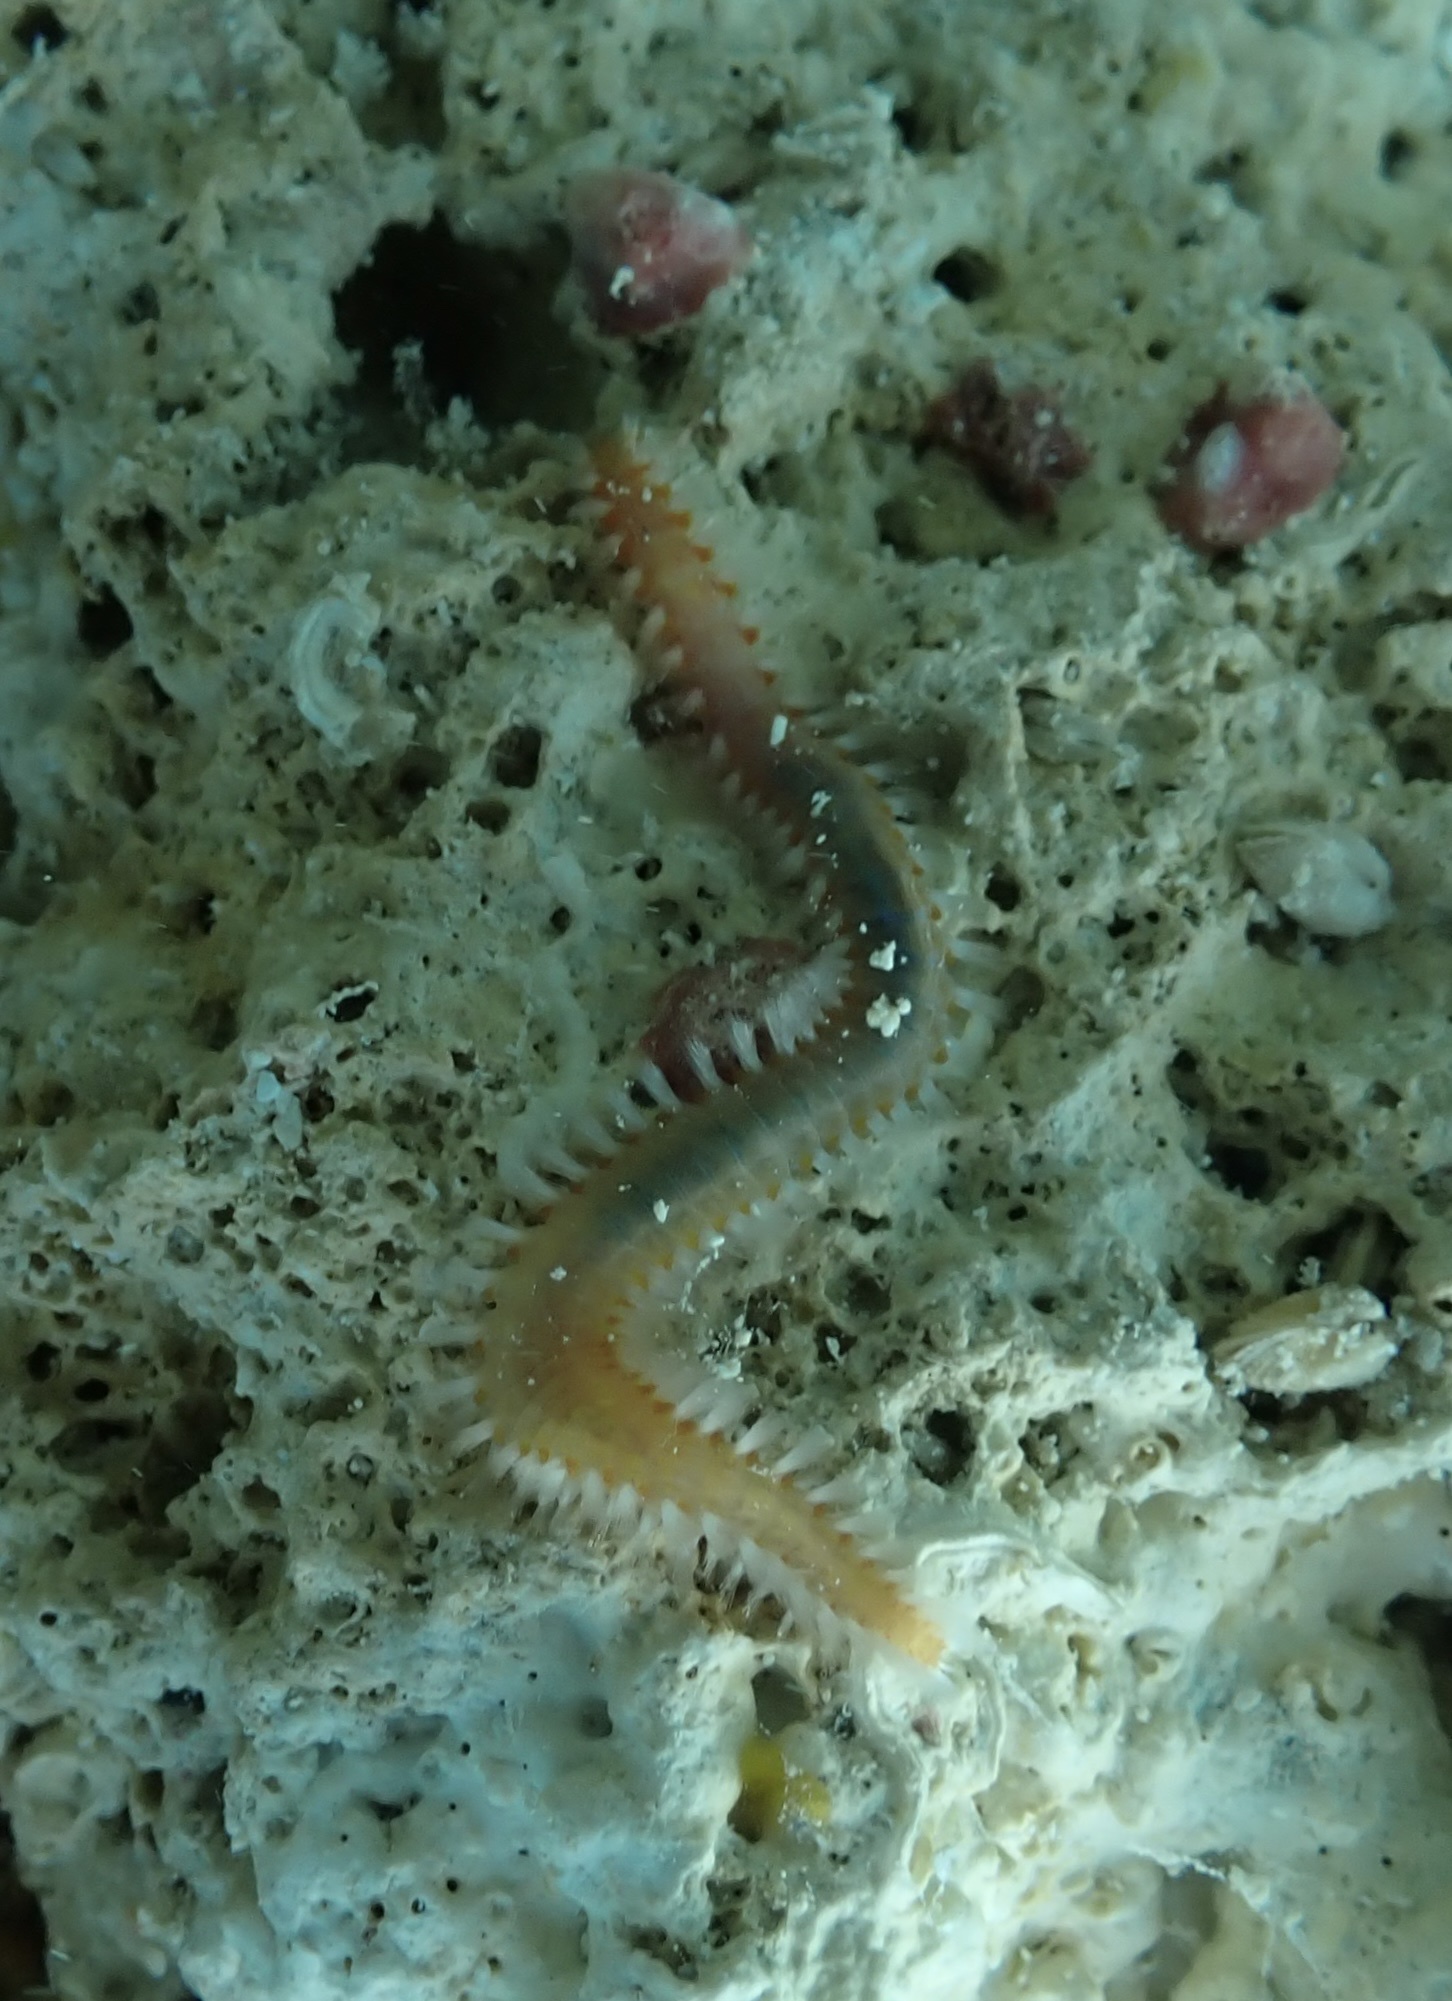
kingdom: Animalia
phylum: Annelida
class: Polychaeta
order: Amphinomida
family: Amphinomidae
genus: Eurythoe
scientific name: Eurythoe complanata
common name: Fireworm
